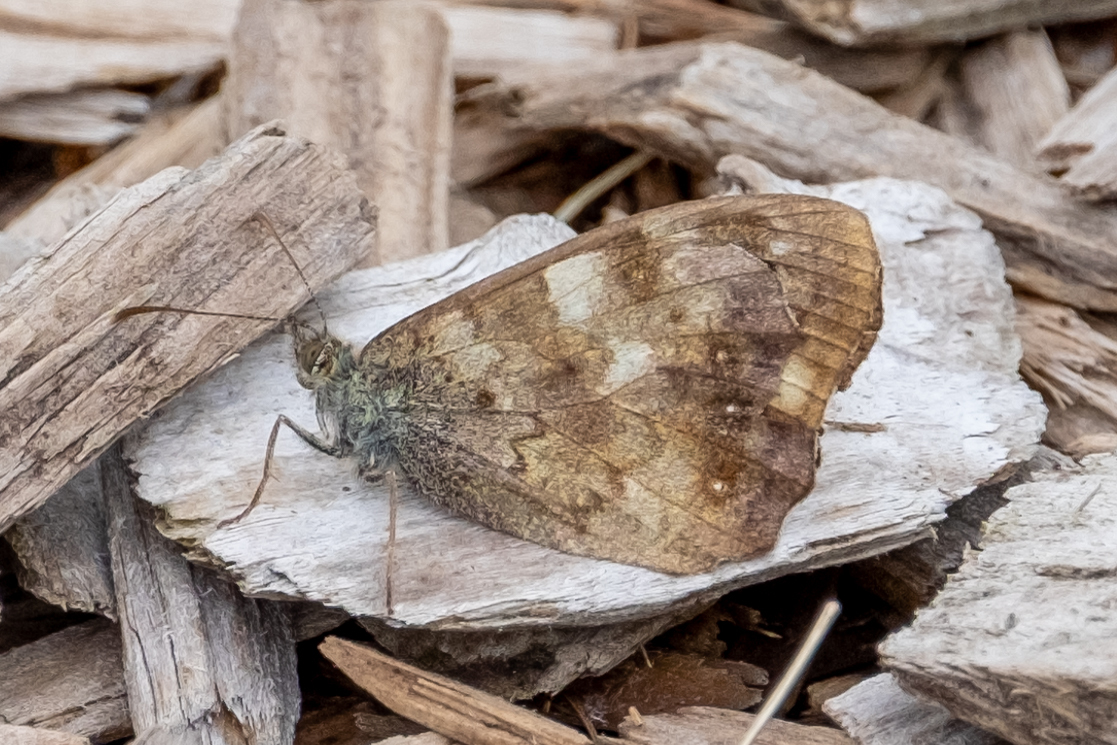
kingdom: Animalia
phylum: Arthropoda
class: Insecta
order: Lepidoptera
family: Nymphalidae
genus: Pararge
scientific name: Pararge aegeria
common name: Speckled wood
